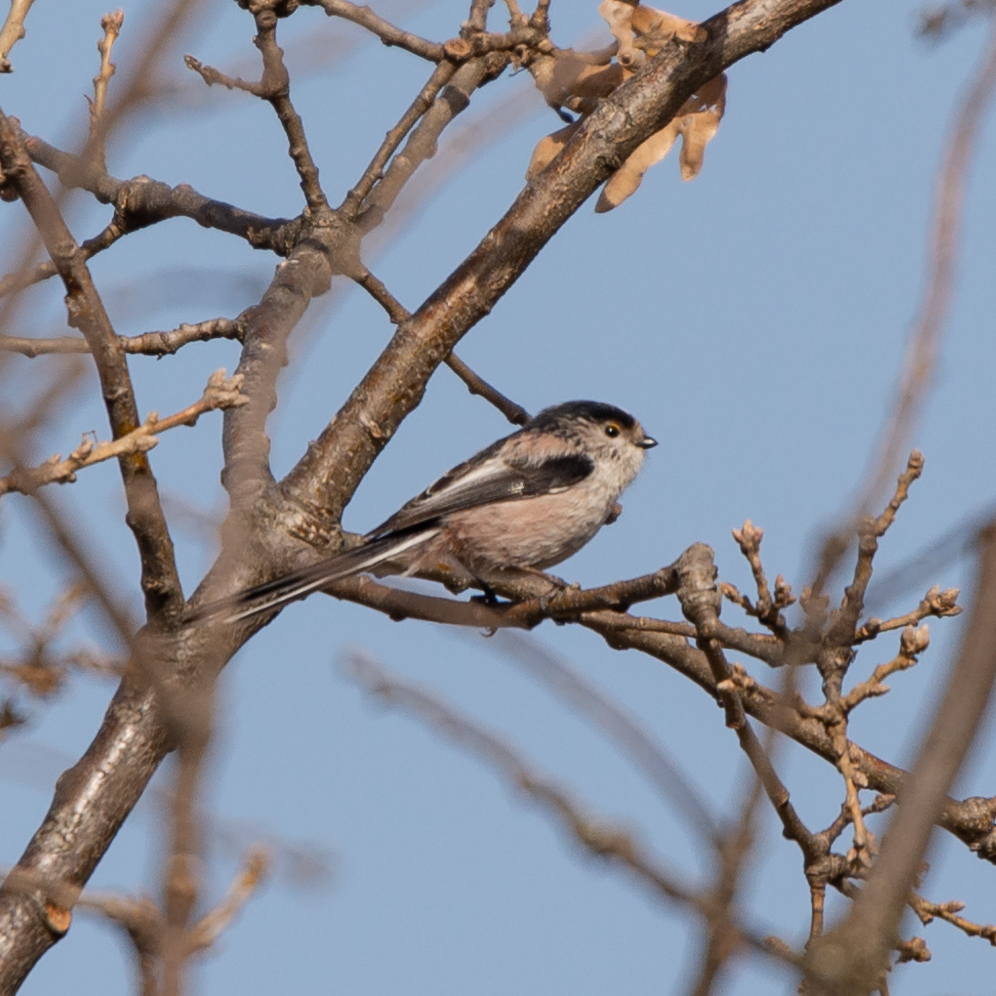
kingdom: Animalia
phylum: Chordata
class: Aves
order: Passeriformes
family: Aegithalidae
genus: Aegithalos
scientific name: Aegithalos caudatus
